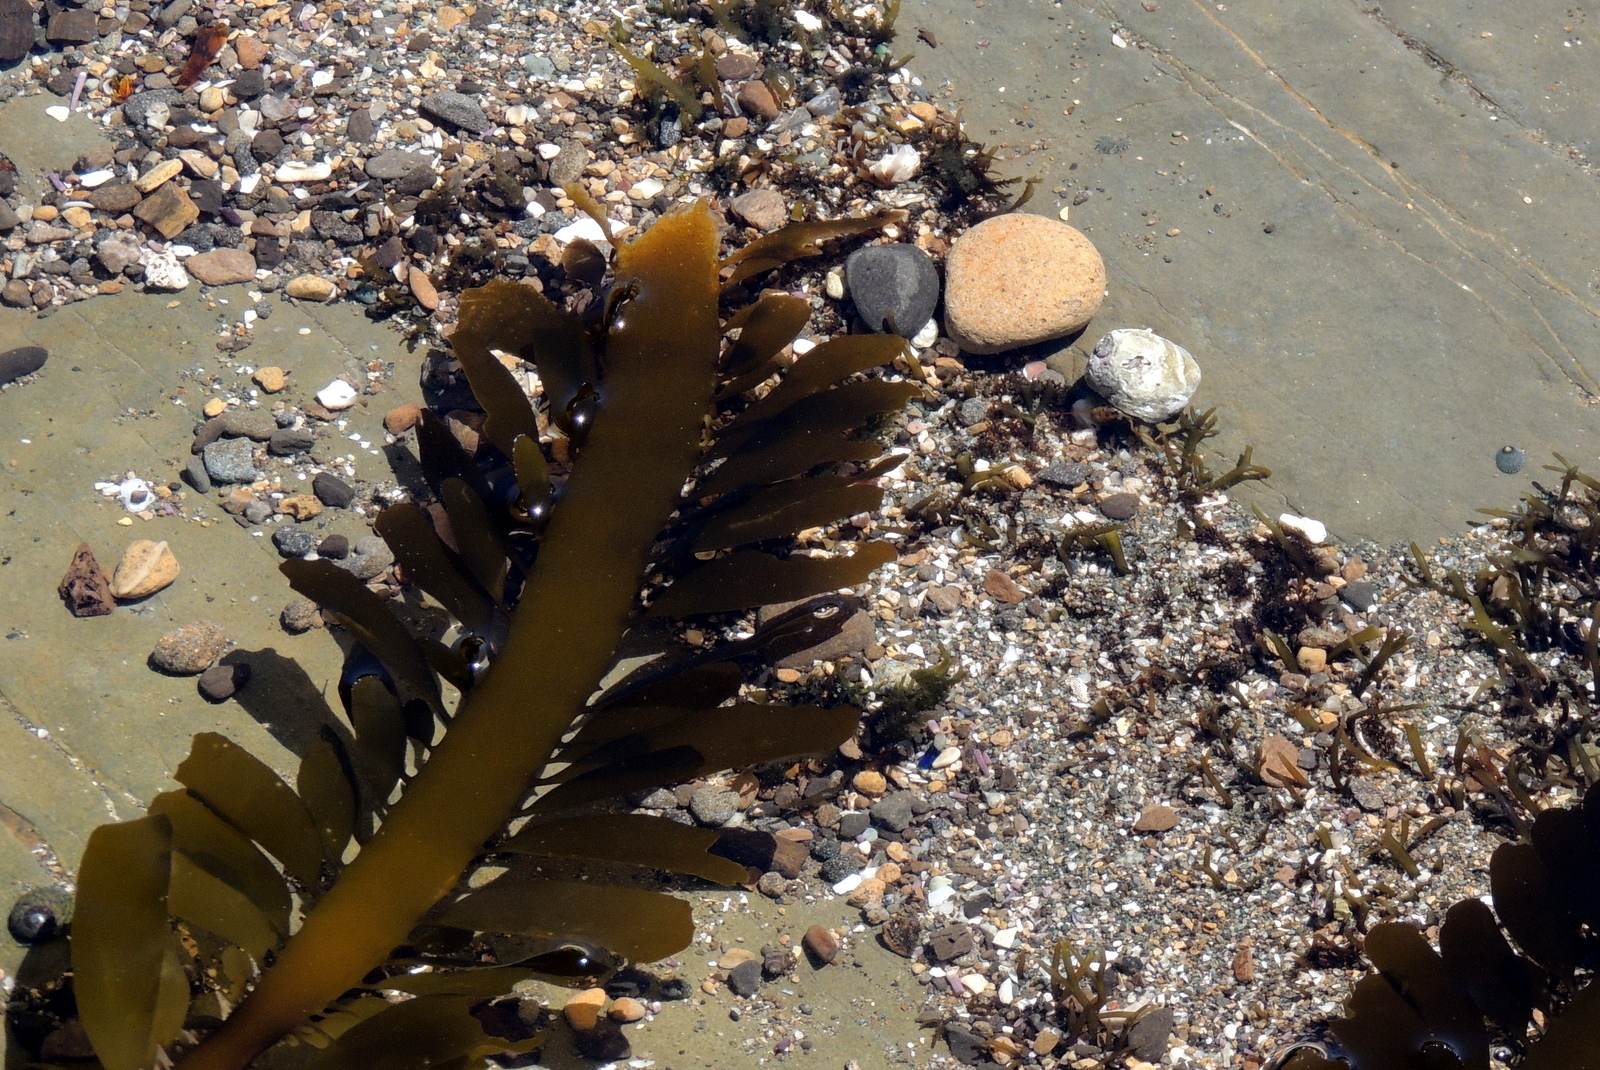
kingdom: Chromista
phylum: Ochrophyta
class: Phaeophyceae
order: Laminariales
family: Lessoniaceae
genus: Egregia
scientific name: Egregia menziesii
